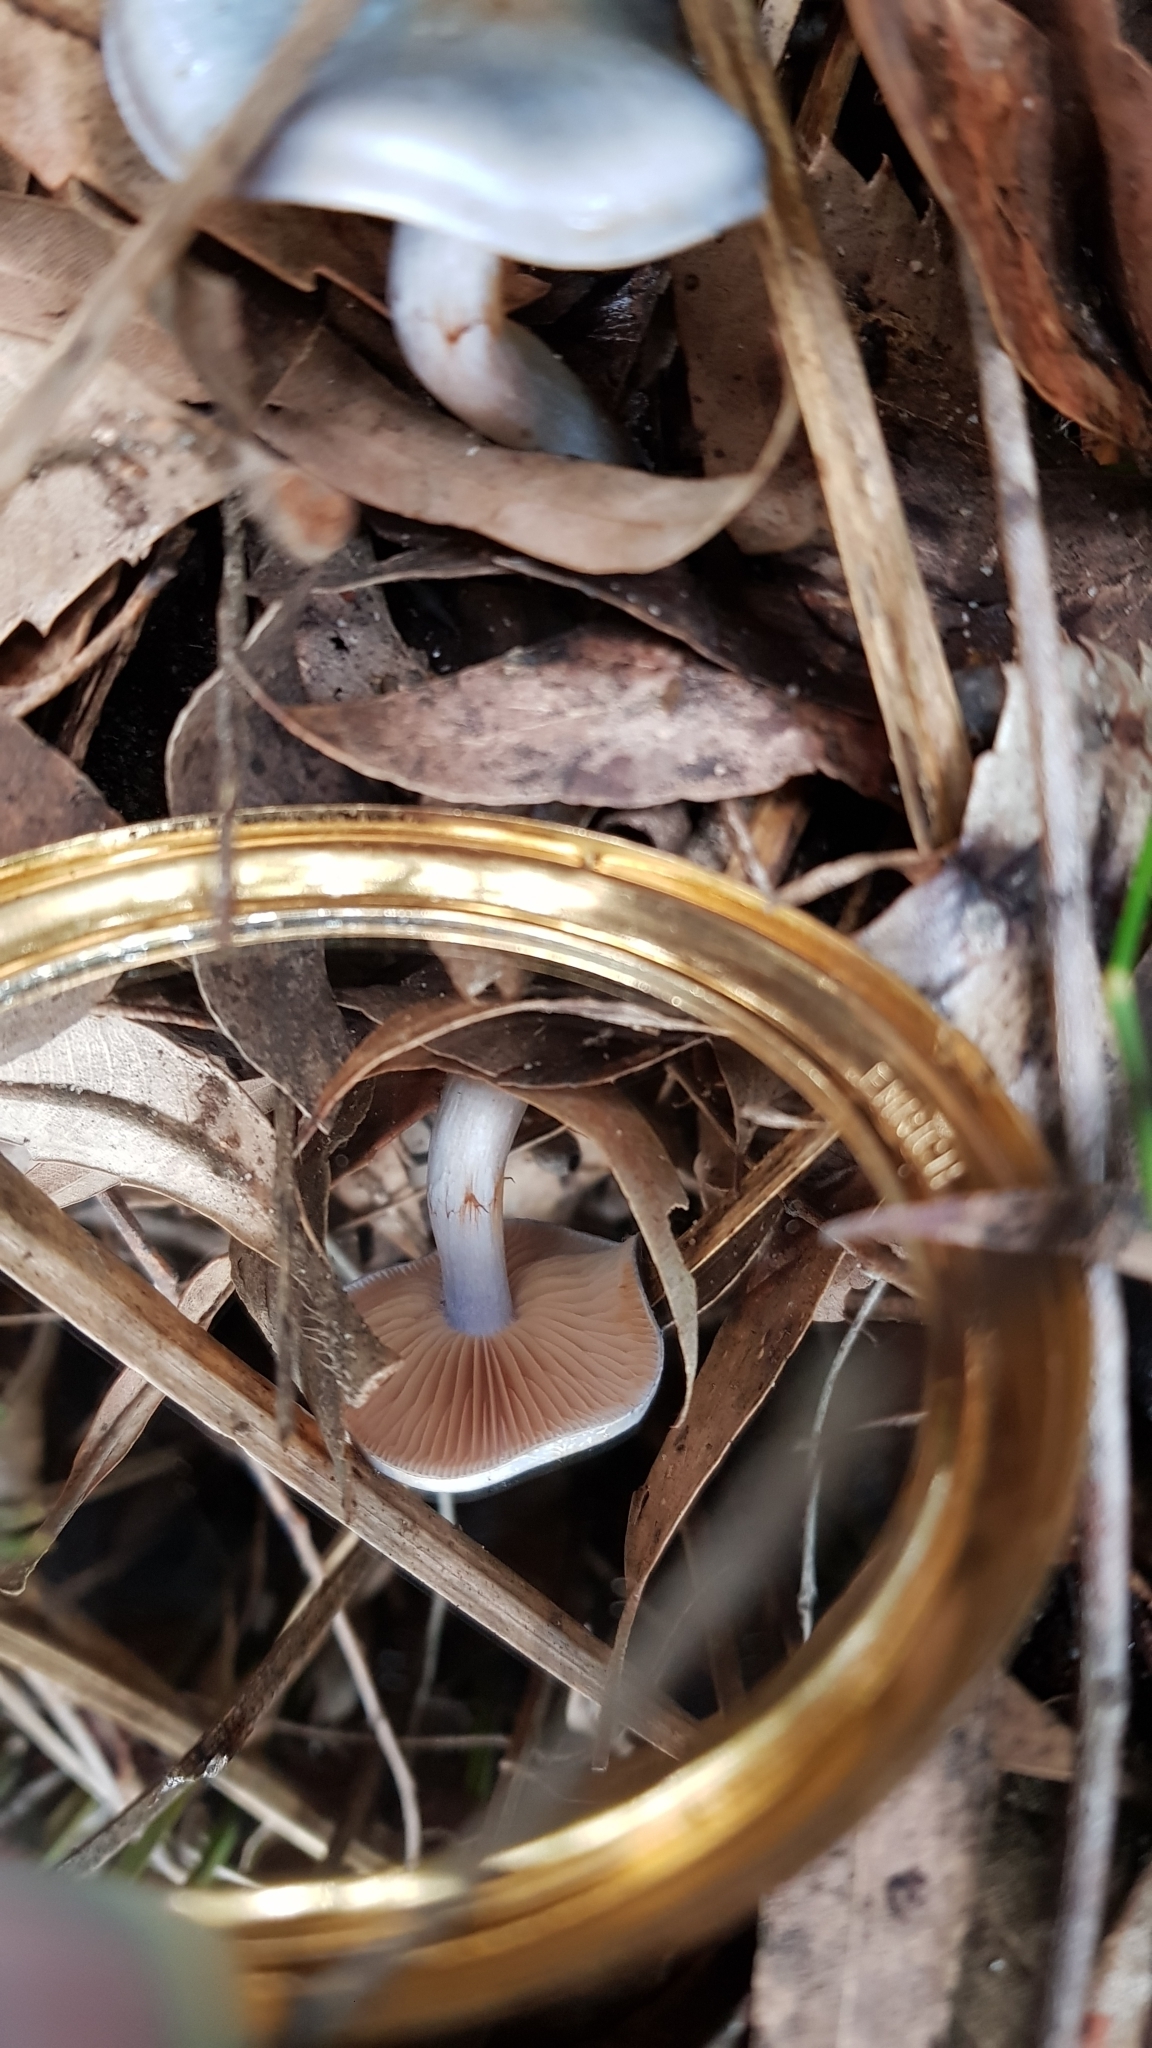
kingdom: Fungi
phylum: Basidiomycota
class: Agaricomycetes
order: Agaricales
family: Cortinariaceae
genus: Cortinarius
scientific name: Cortinarius rotundisporus
